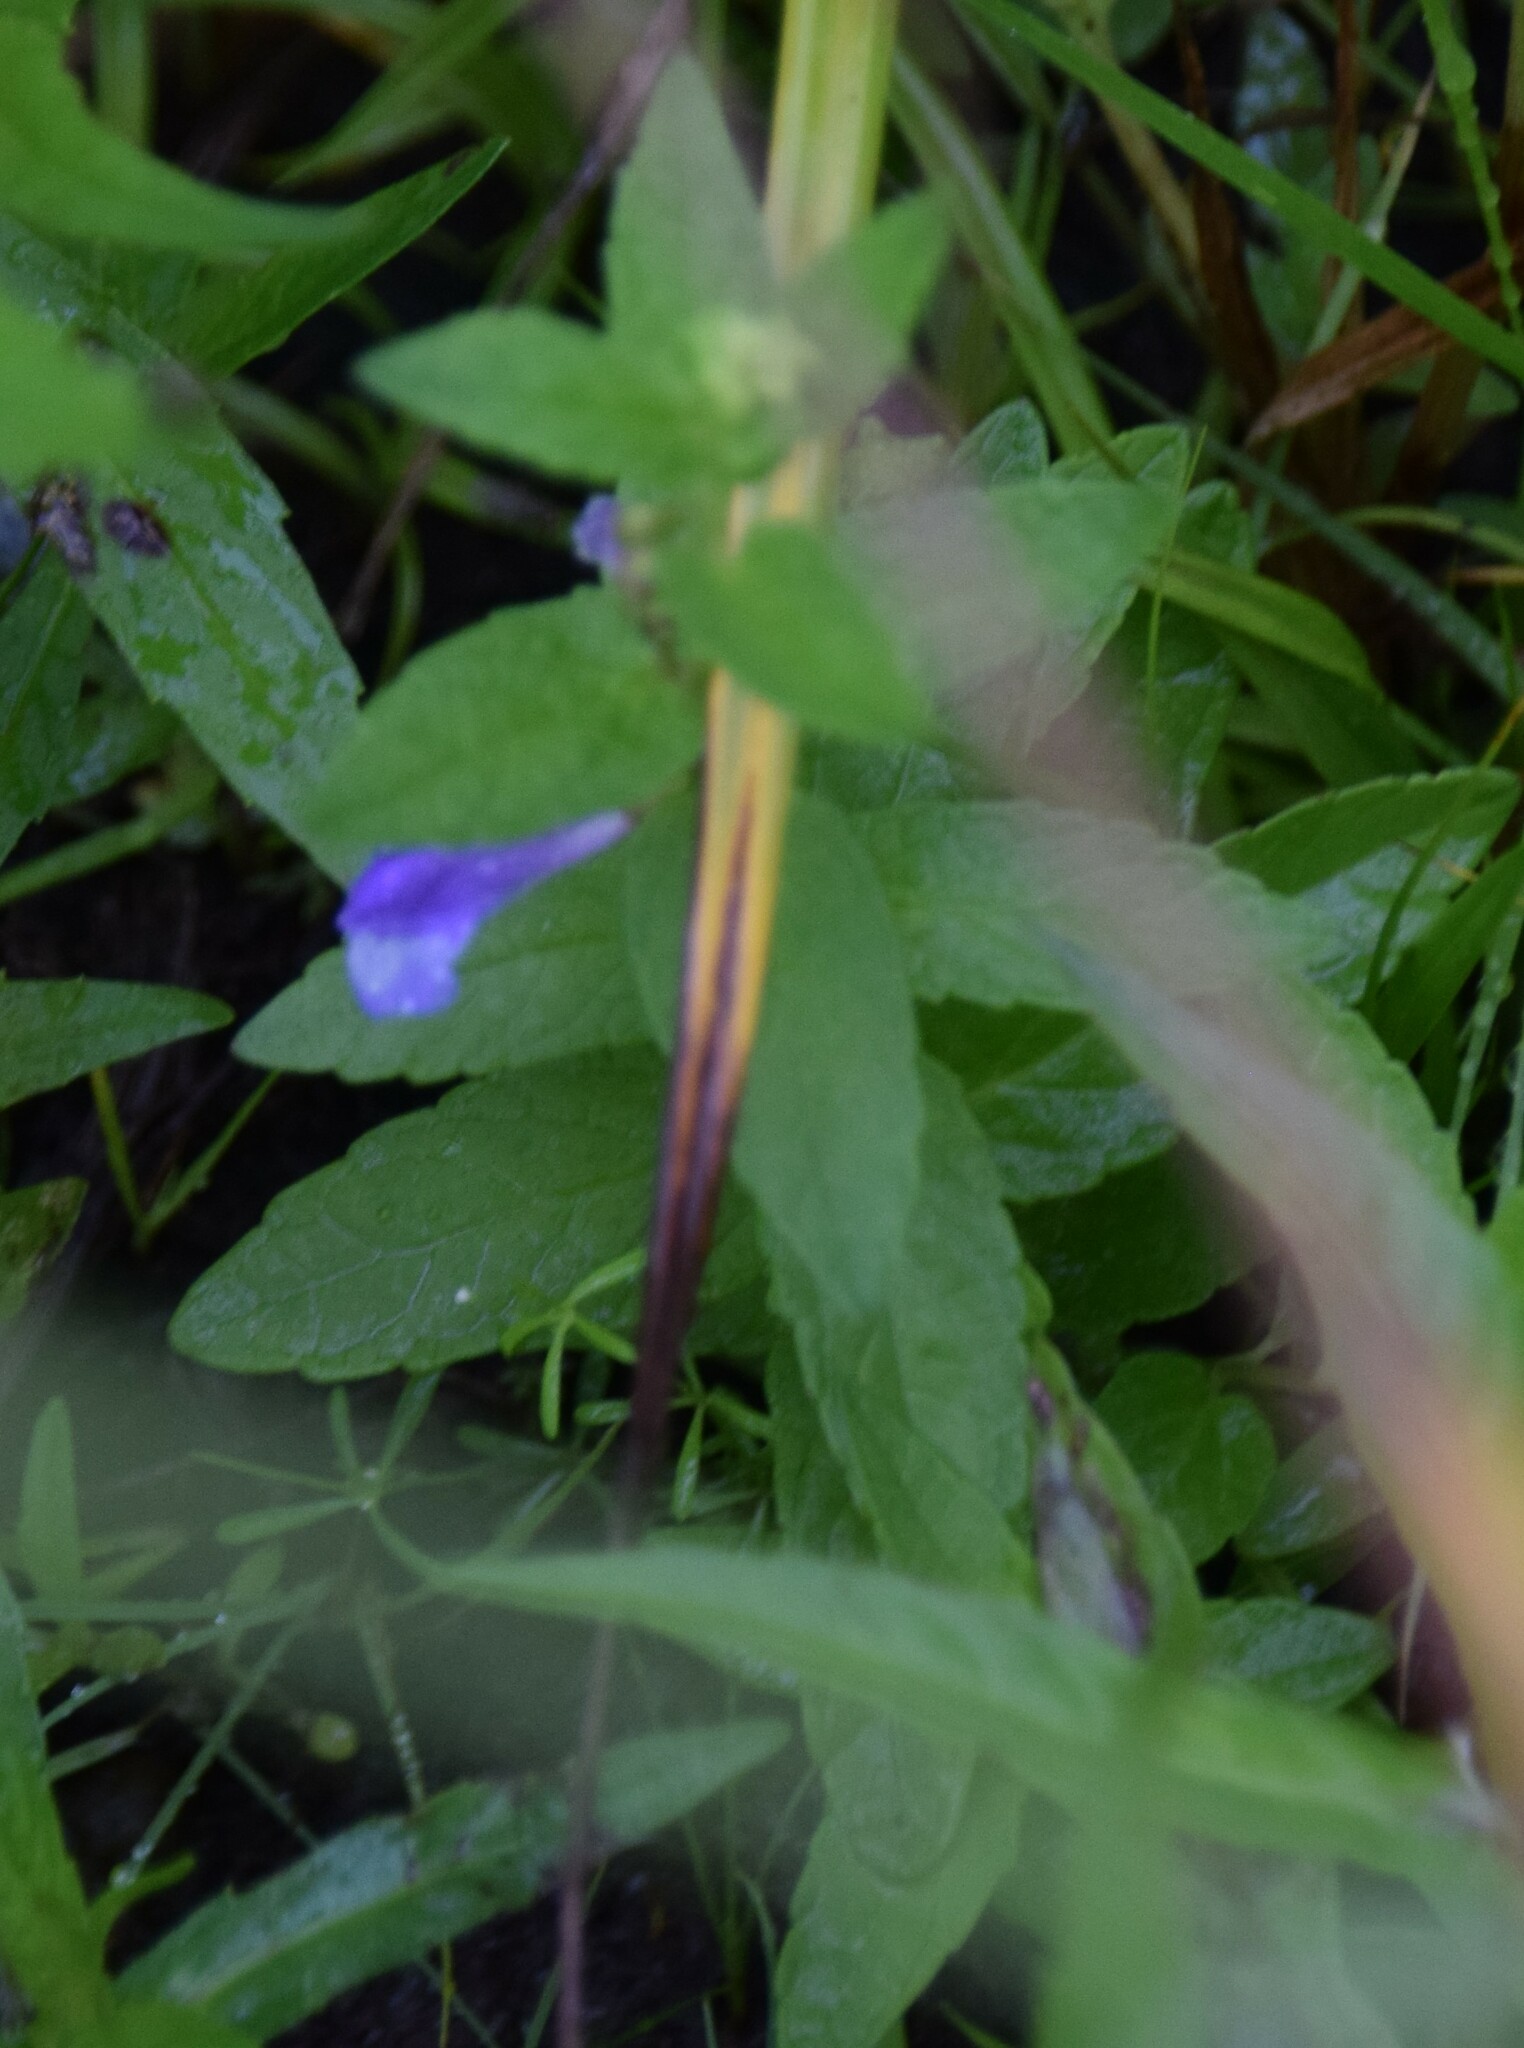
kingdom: Plantae
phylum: Tracheophyta
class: Magnoliopsida
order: Lamiales
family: Lamiaceae
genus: Scutellaria
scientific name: Scutellaria galericulata
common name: Skullcap
